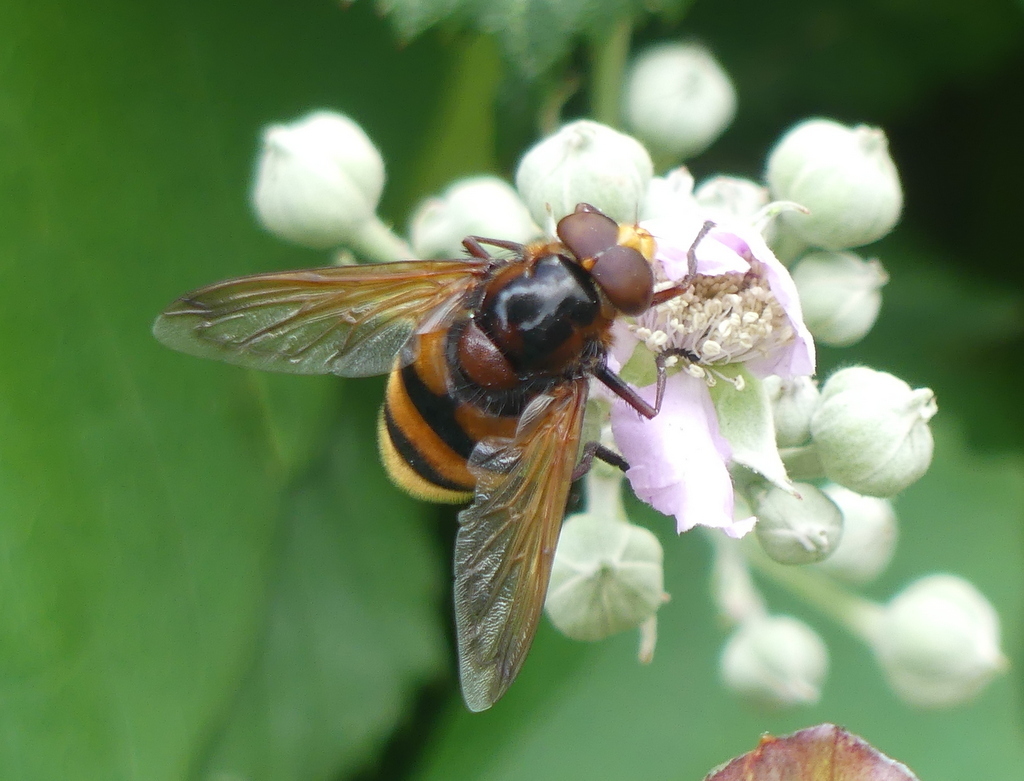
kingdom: Animalia
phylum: Arthropoda
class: Insecta
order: Diptera
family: Syrphidae
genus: Volucella
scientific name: Volucella zonaria
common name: Hornet hoverfly
